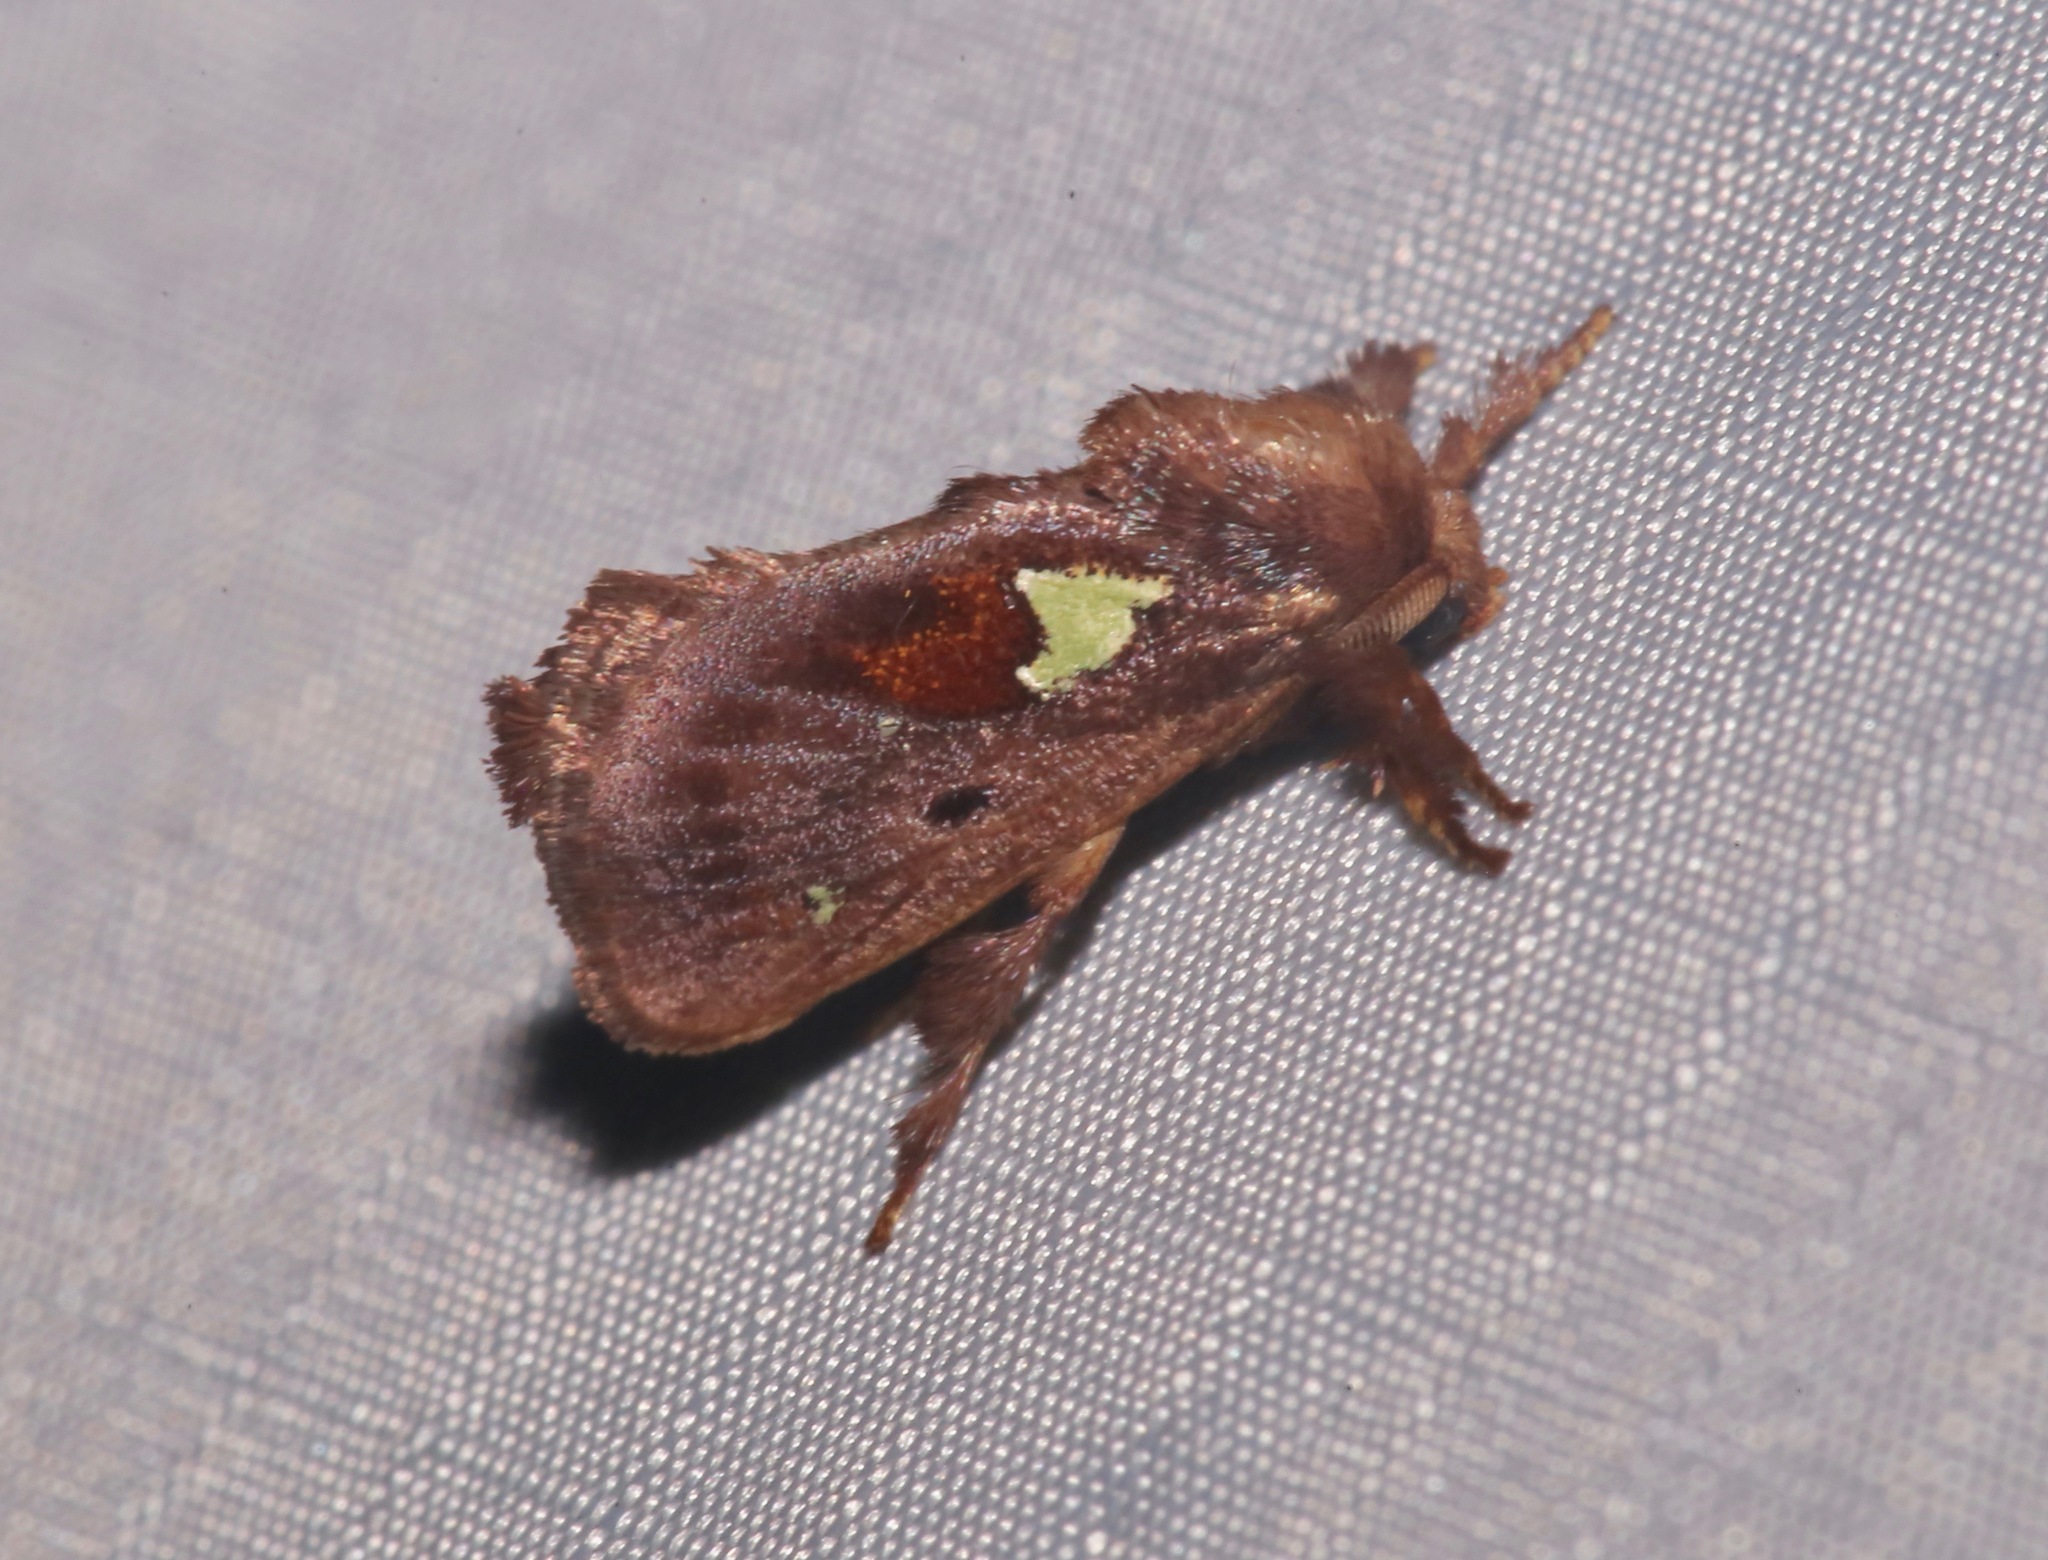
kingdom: Animalia
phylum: Arthropoda
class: Insecta
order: Lepidoptera
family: Limacodidae
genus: Euclea
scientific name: Euclea delphinii
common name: Spiny oak-slug moth
